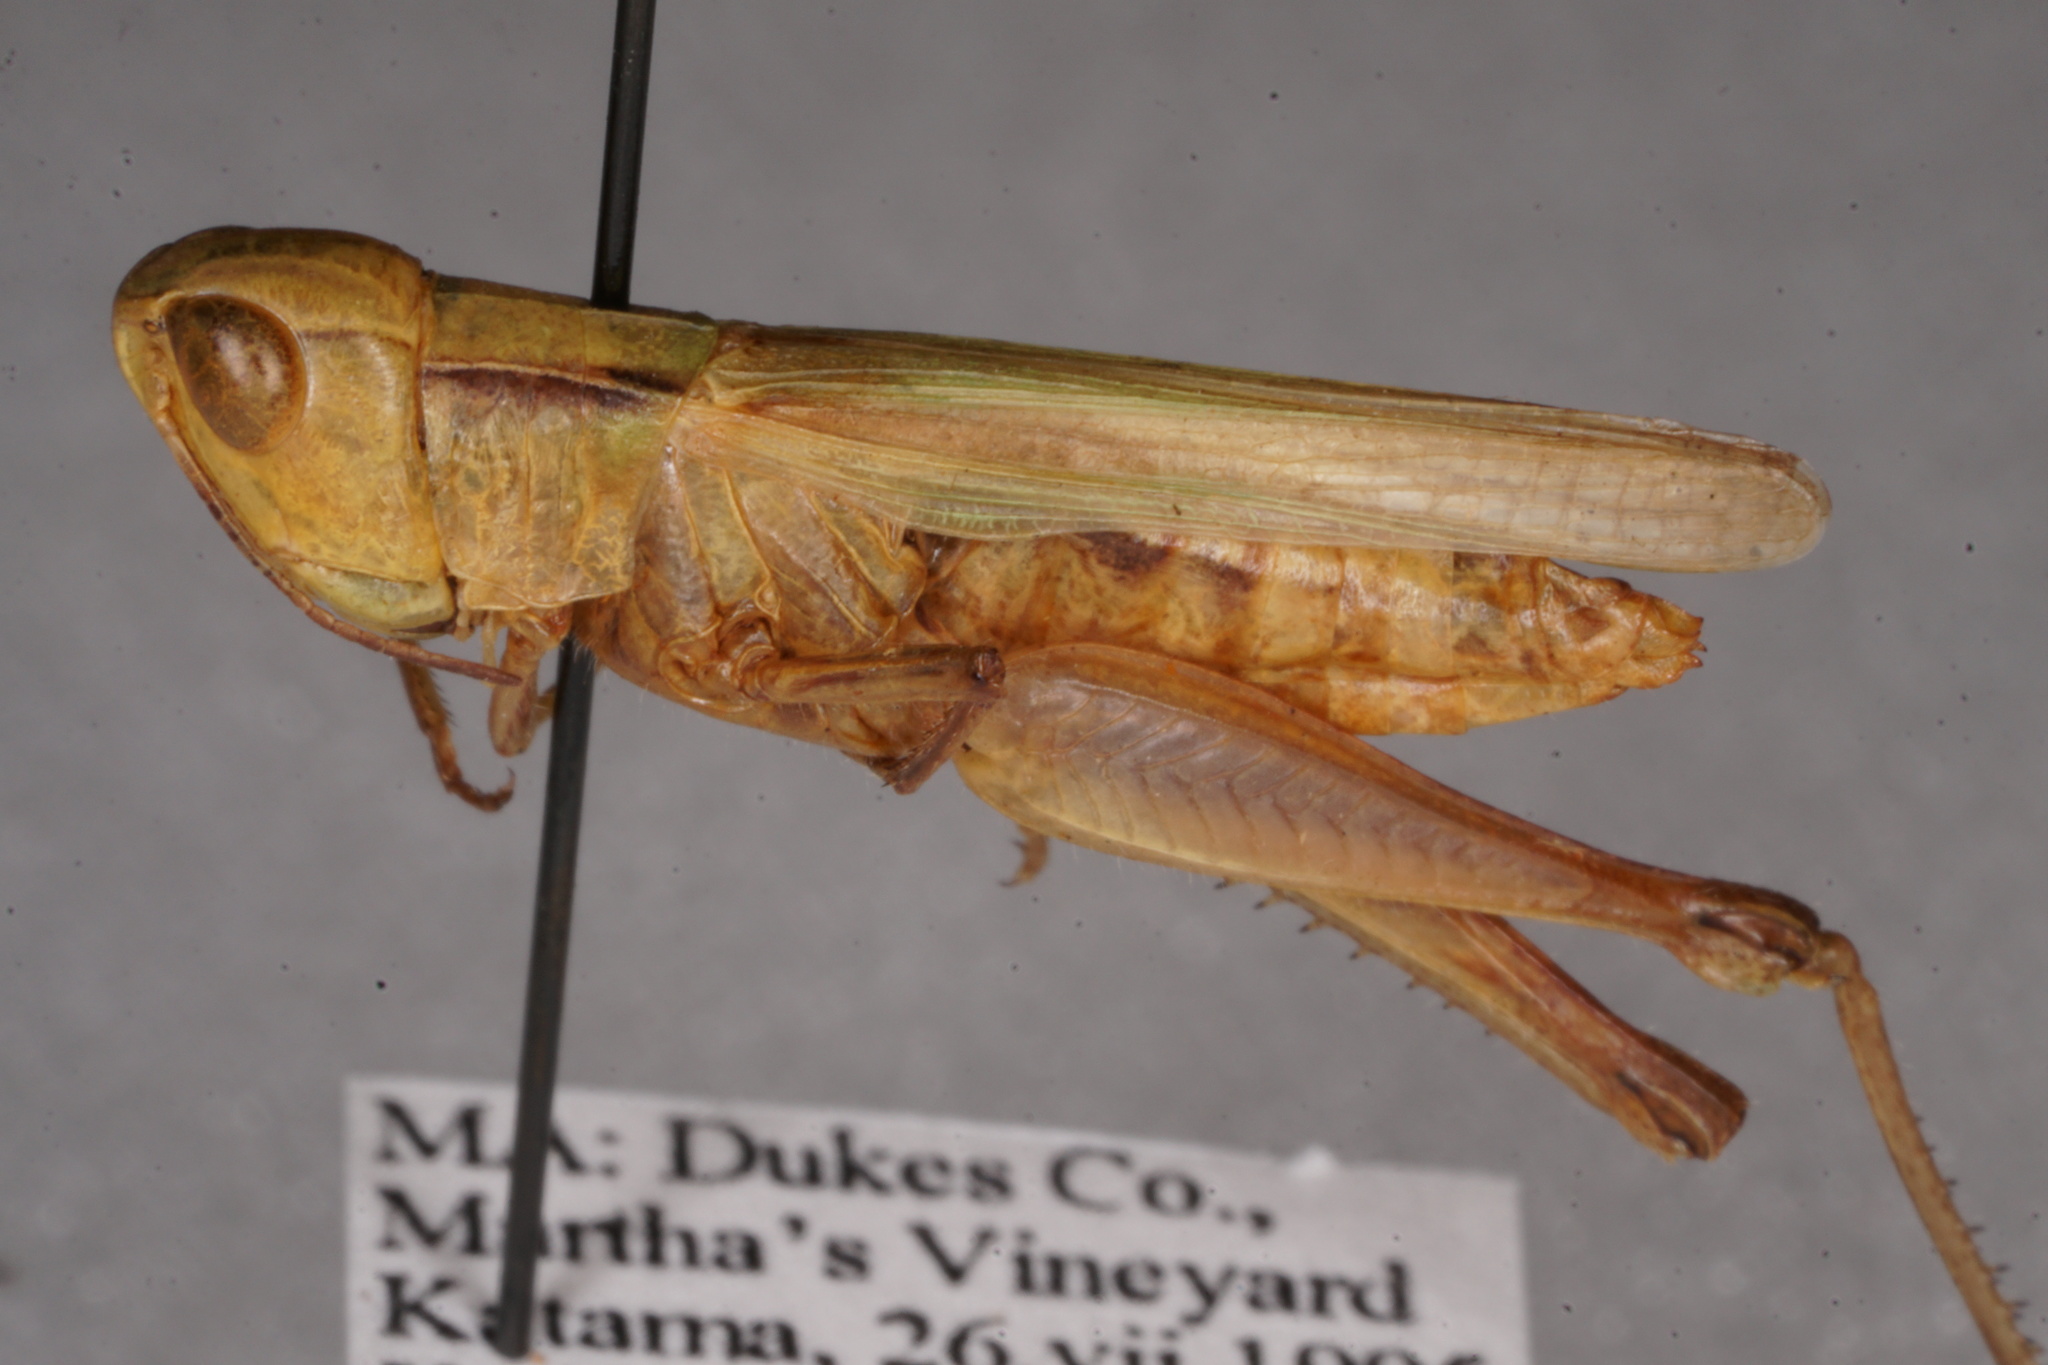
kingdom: Animalia
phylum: Arthropoda
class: Insecta
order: Orthoptera
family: Acrididae
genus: Orphulella
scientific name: Orphulella speciosa
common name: Pasture grasshopper
